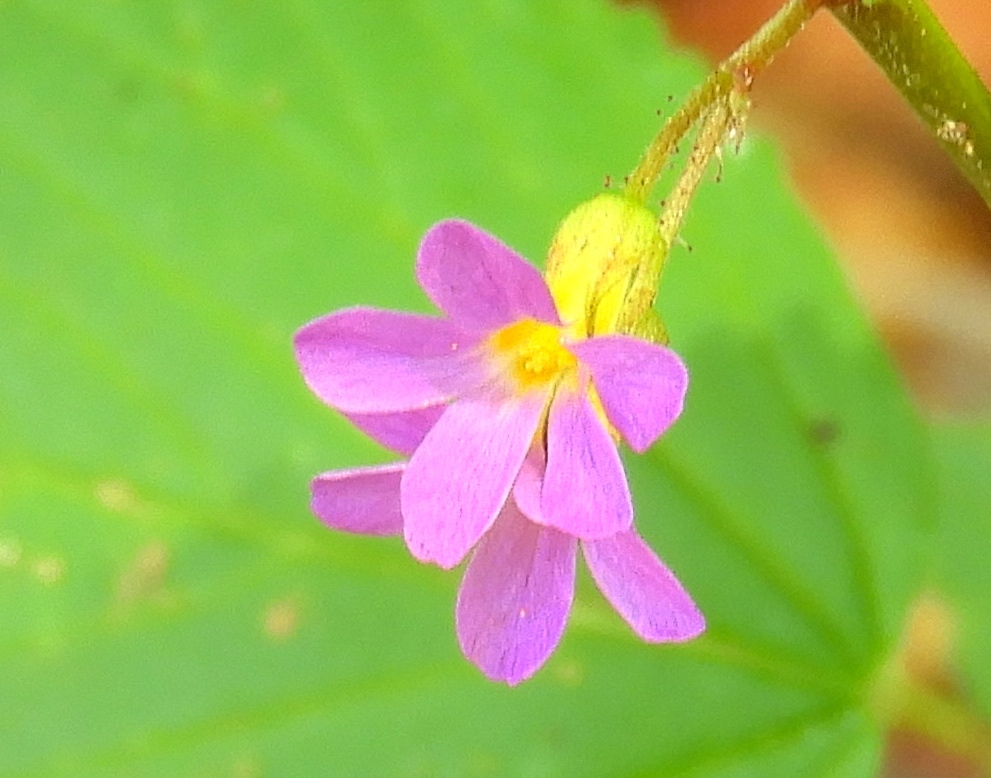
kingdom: Plantae
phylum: Tracheophyta
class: Magnoliopsida
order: Malvales
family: Malvaceae
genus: Melochia
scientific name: Melochia pyramidata
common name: Pyramidflower
